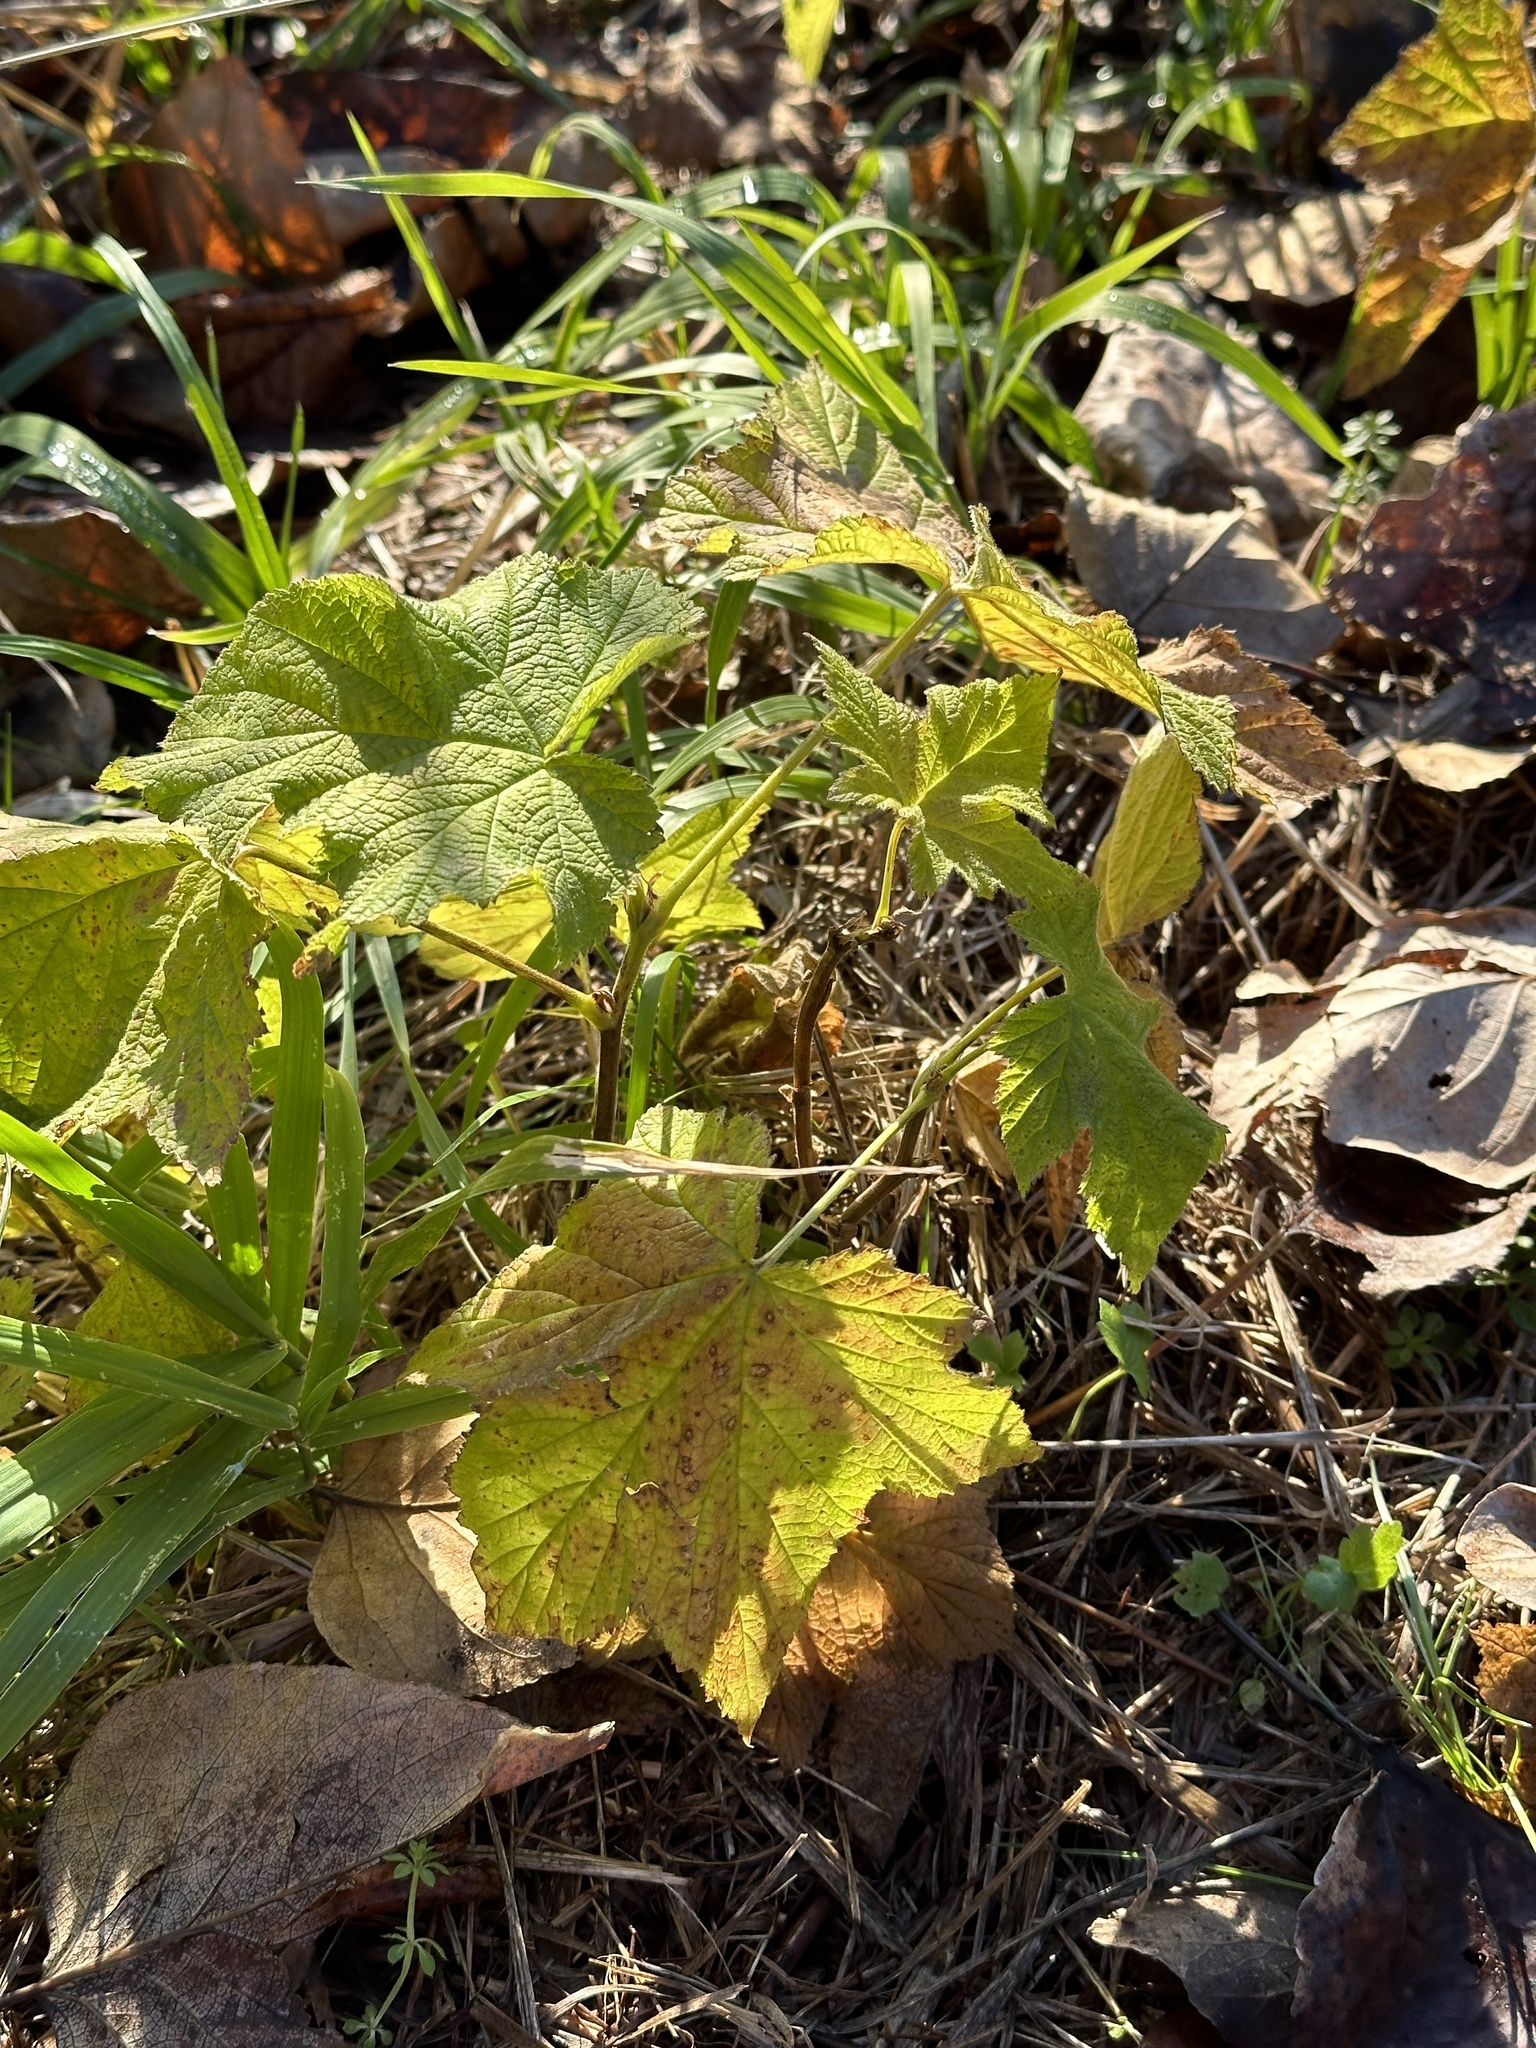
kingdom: Plantae
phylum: Tracheophyta
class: Magnoliopsida
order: Rosales
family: Rosaceae
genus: Rubus
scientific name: Rubus parviflorus
